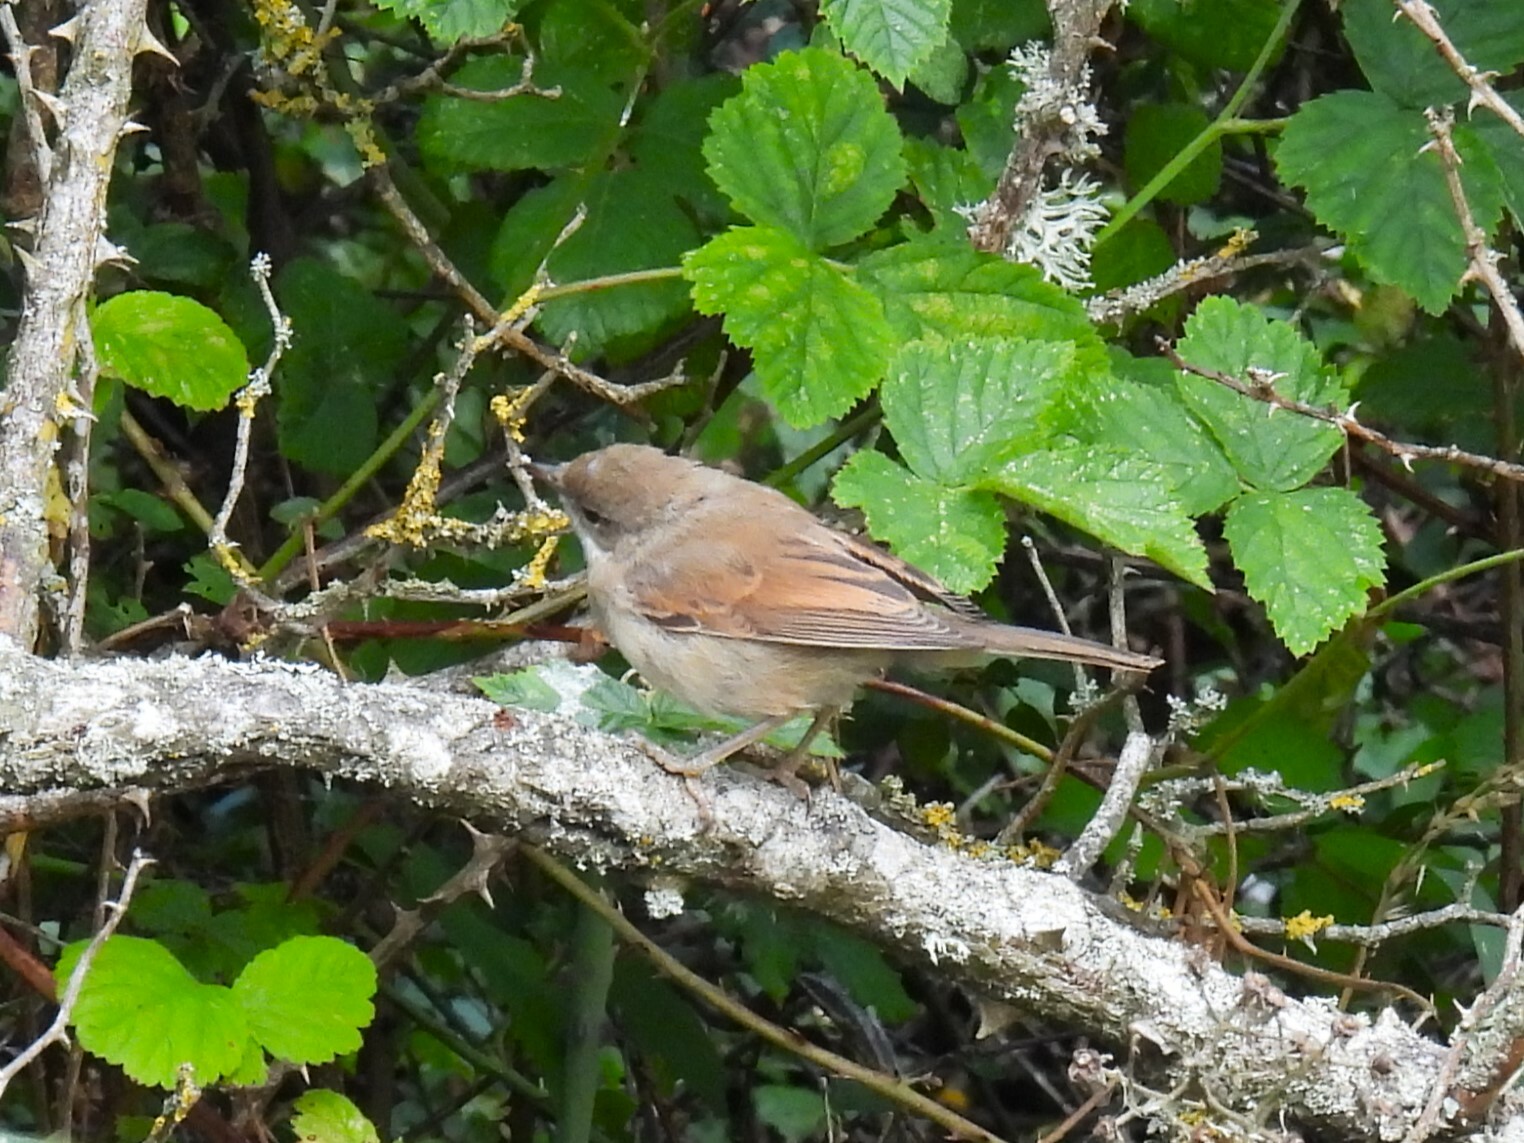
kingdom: Animalia
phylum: Chordata
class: Aves
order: Passeriformes
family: Sylviidae
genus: Sylvia
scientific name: Sylvia communis
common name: Common whitethroat
